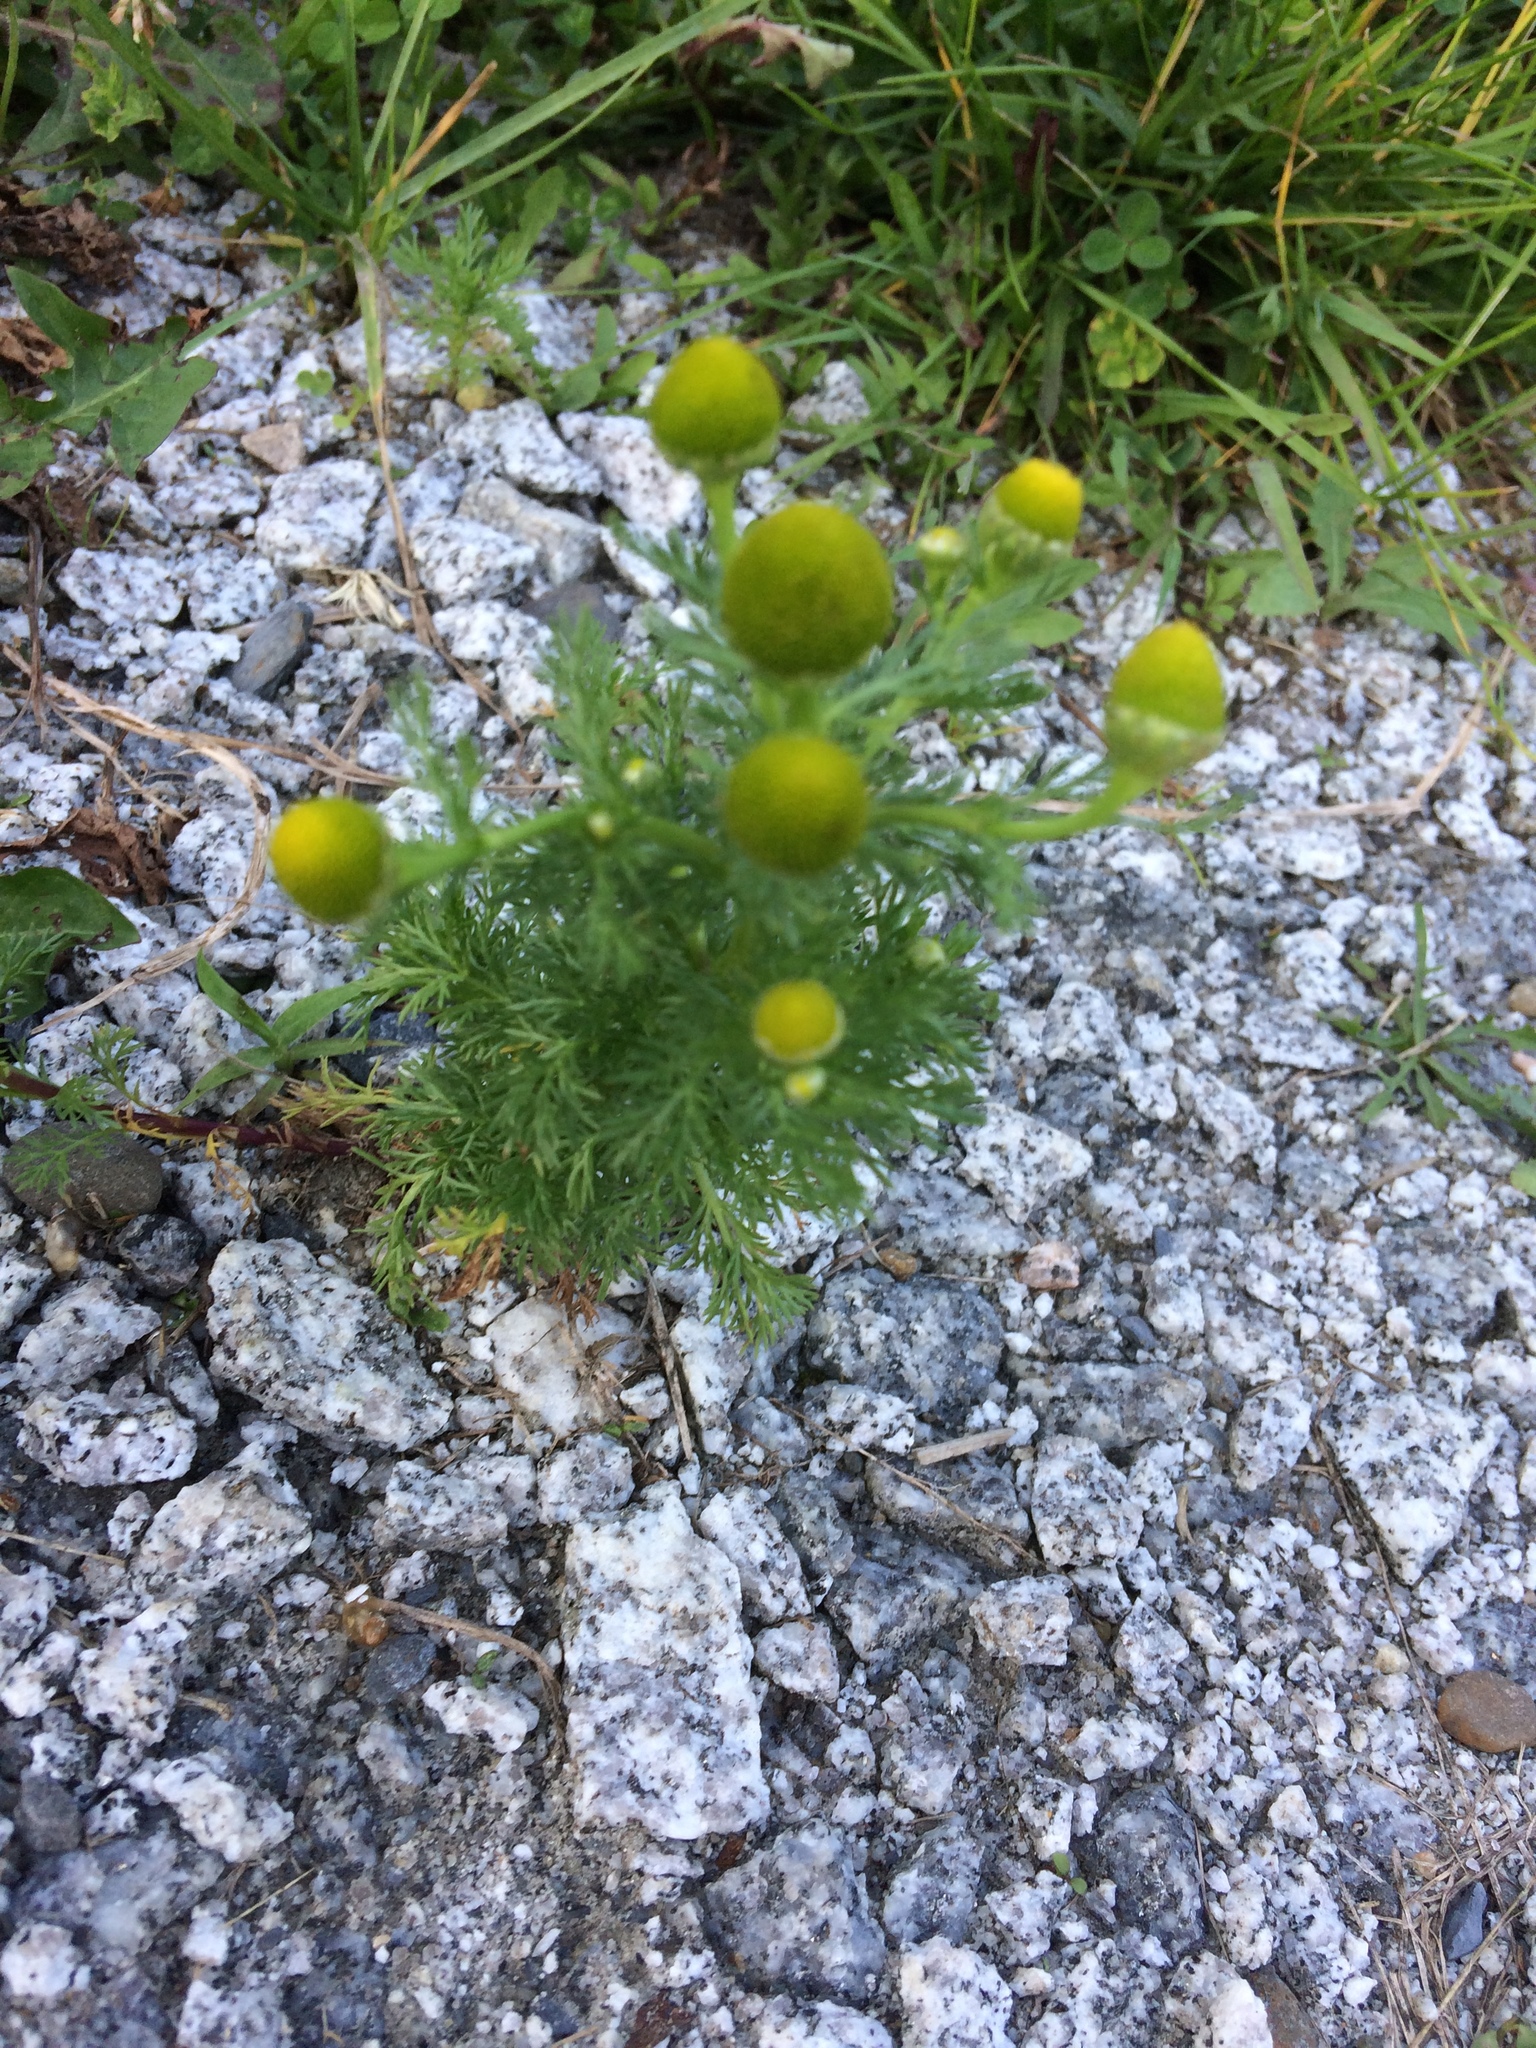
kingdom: Plantae
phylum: Tracheophyta
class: Magnoliopsida
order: Asterales
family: Asteraceae
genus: Matricaria
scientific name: Matricaria discoidea
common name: Disc mayweed
